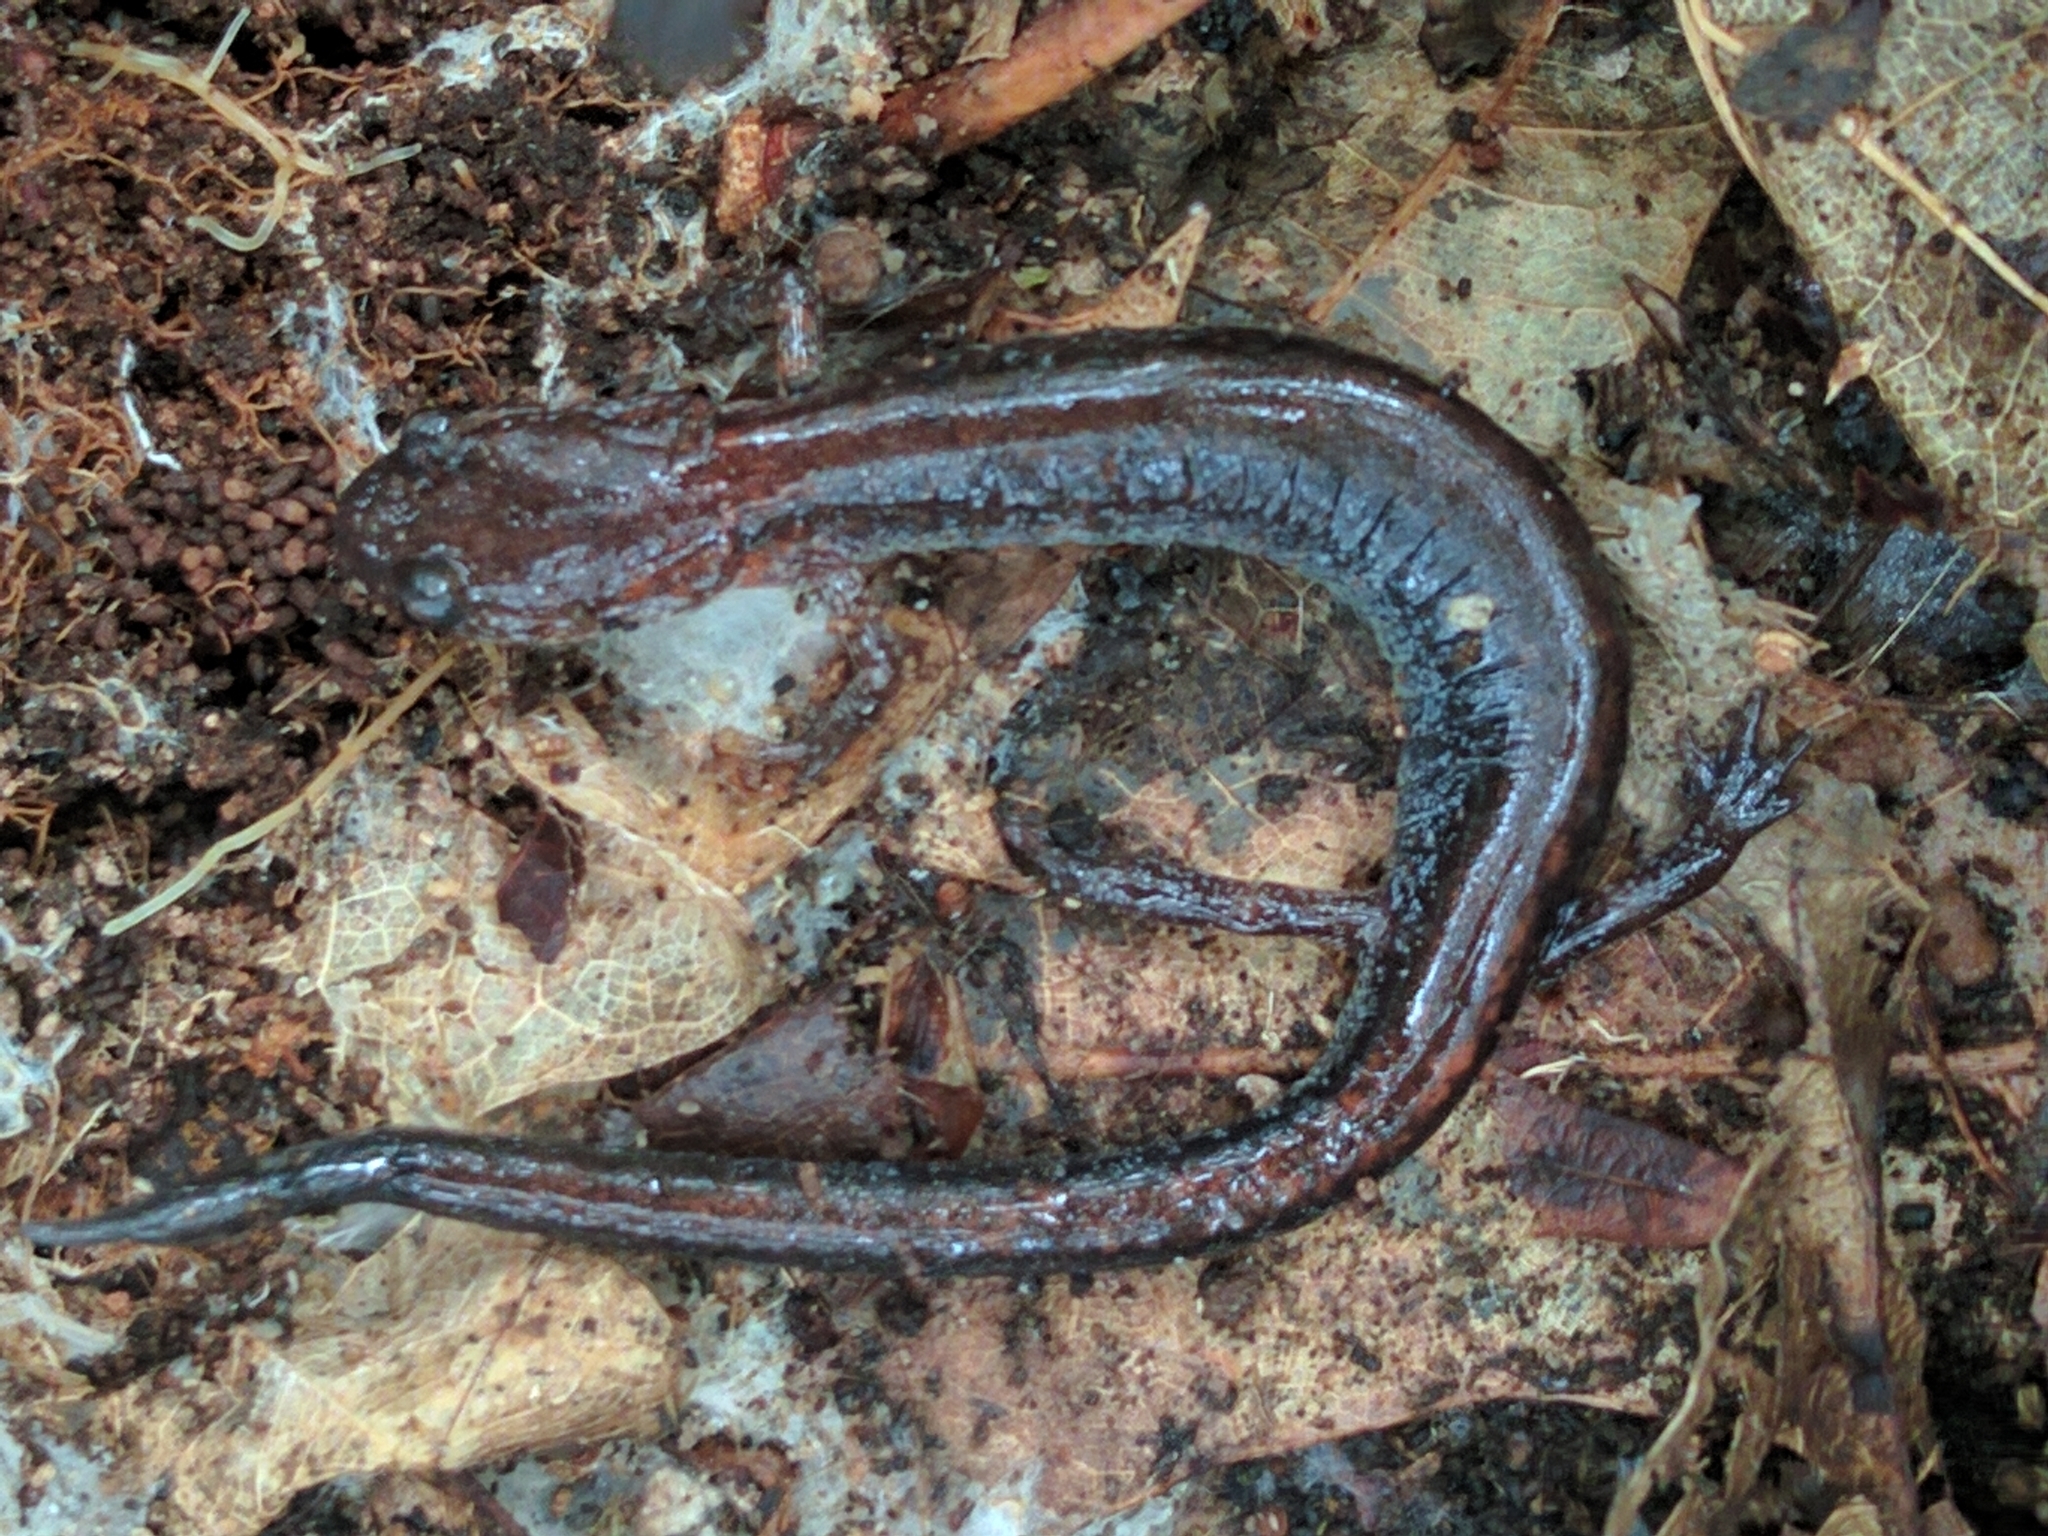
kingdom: Animalia
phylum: Chordata
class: Amphibia
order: Caudata
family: Plethodontidae
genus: Plethodon
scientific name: Plethodon cinereus
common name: Redback salamander
